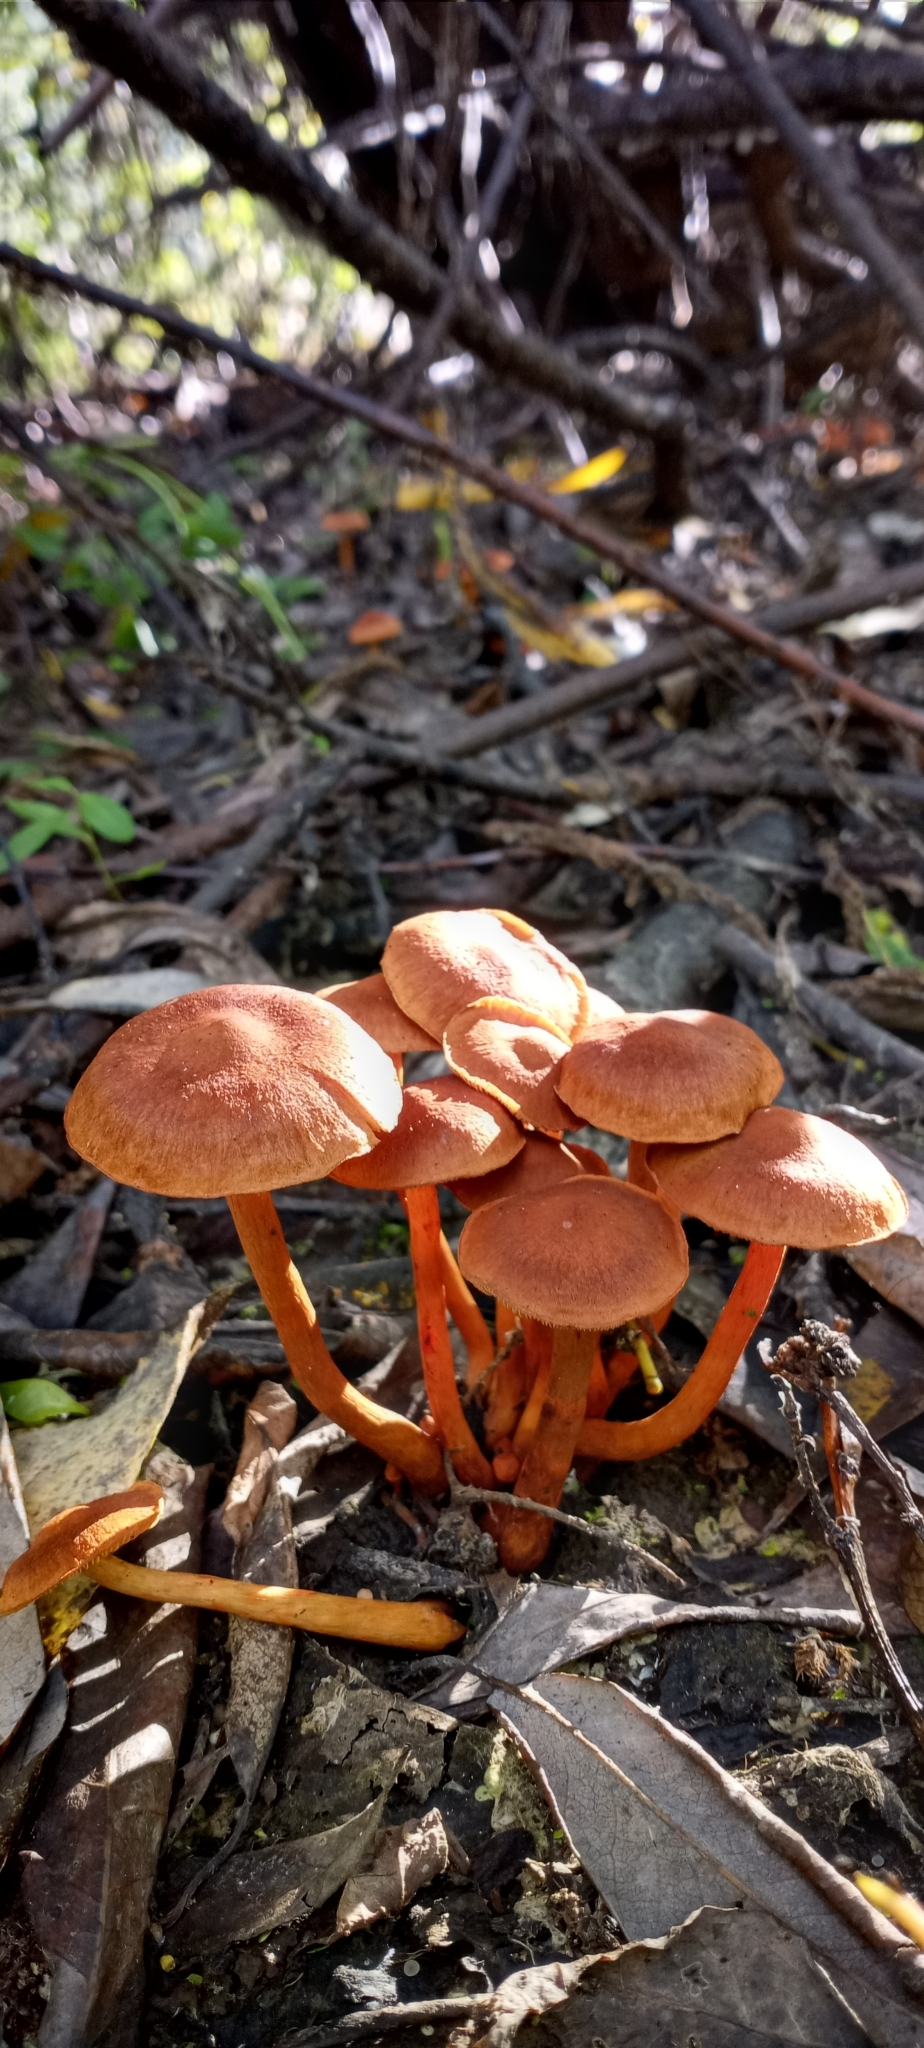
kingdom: Fungi
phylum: Basidiomycota
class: Agaricomycetes
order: Agaricales
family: Cortinariaceae
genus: Cortinarius
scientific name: Cortinarius uliginosus
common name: Marsh webcap
